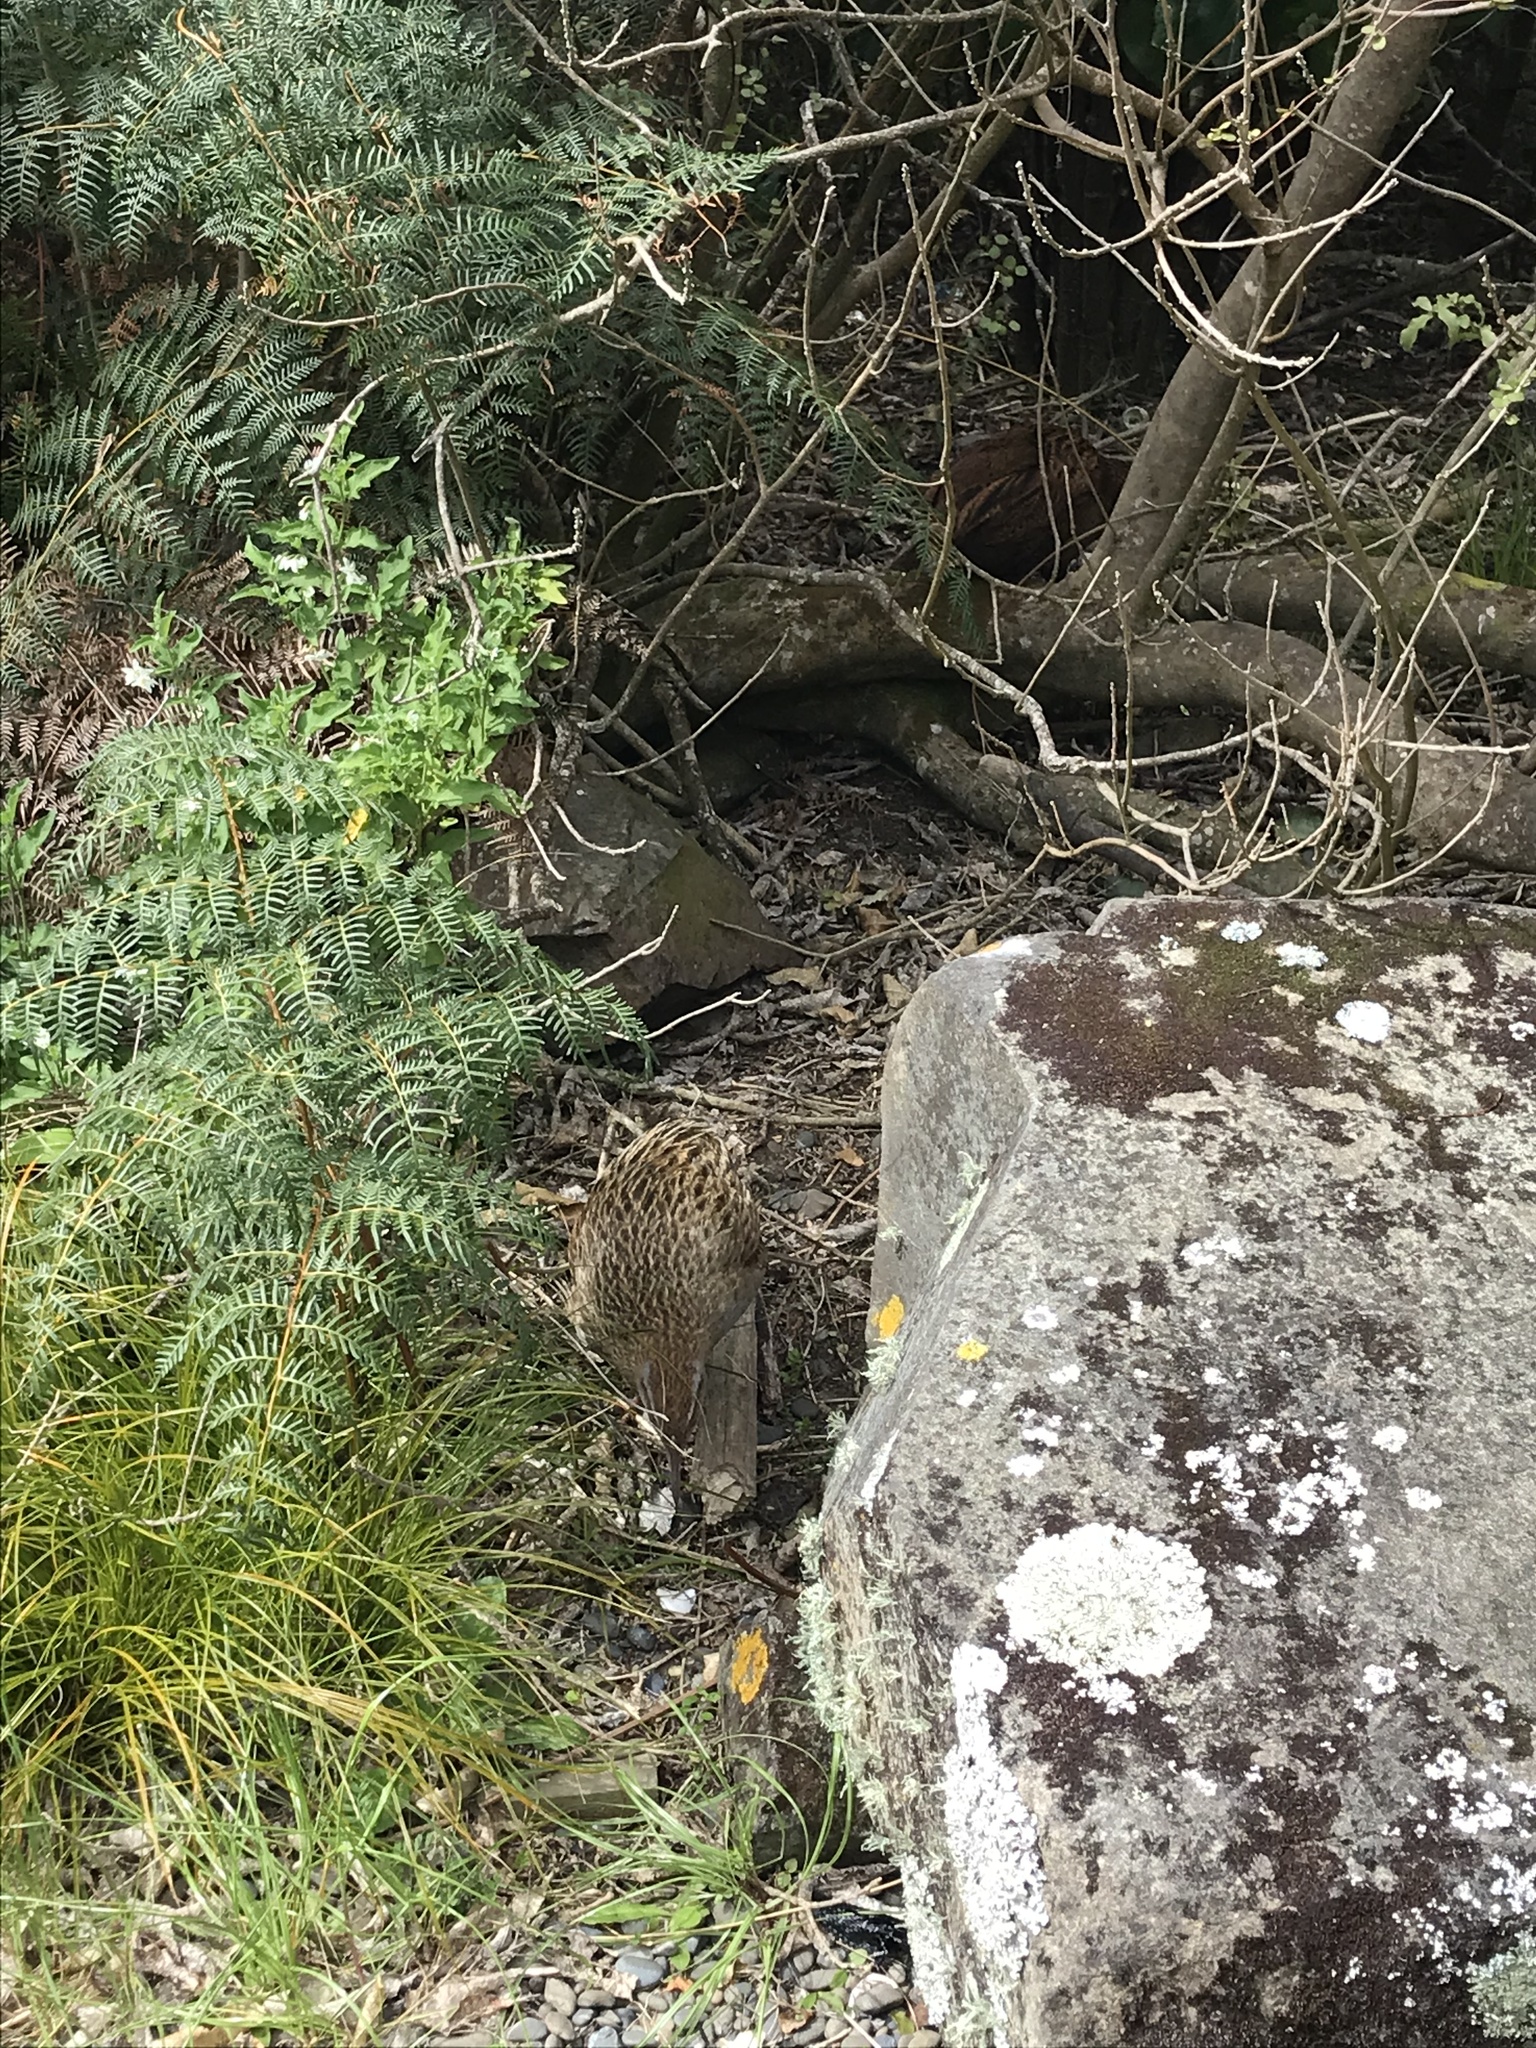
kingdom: Animalia
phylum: Chordata
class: Aves
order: Gruiformes
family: Rallidae
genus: Gallirallus
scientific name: Gallirallus
